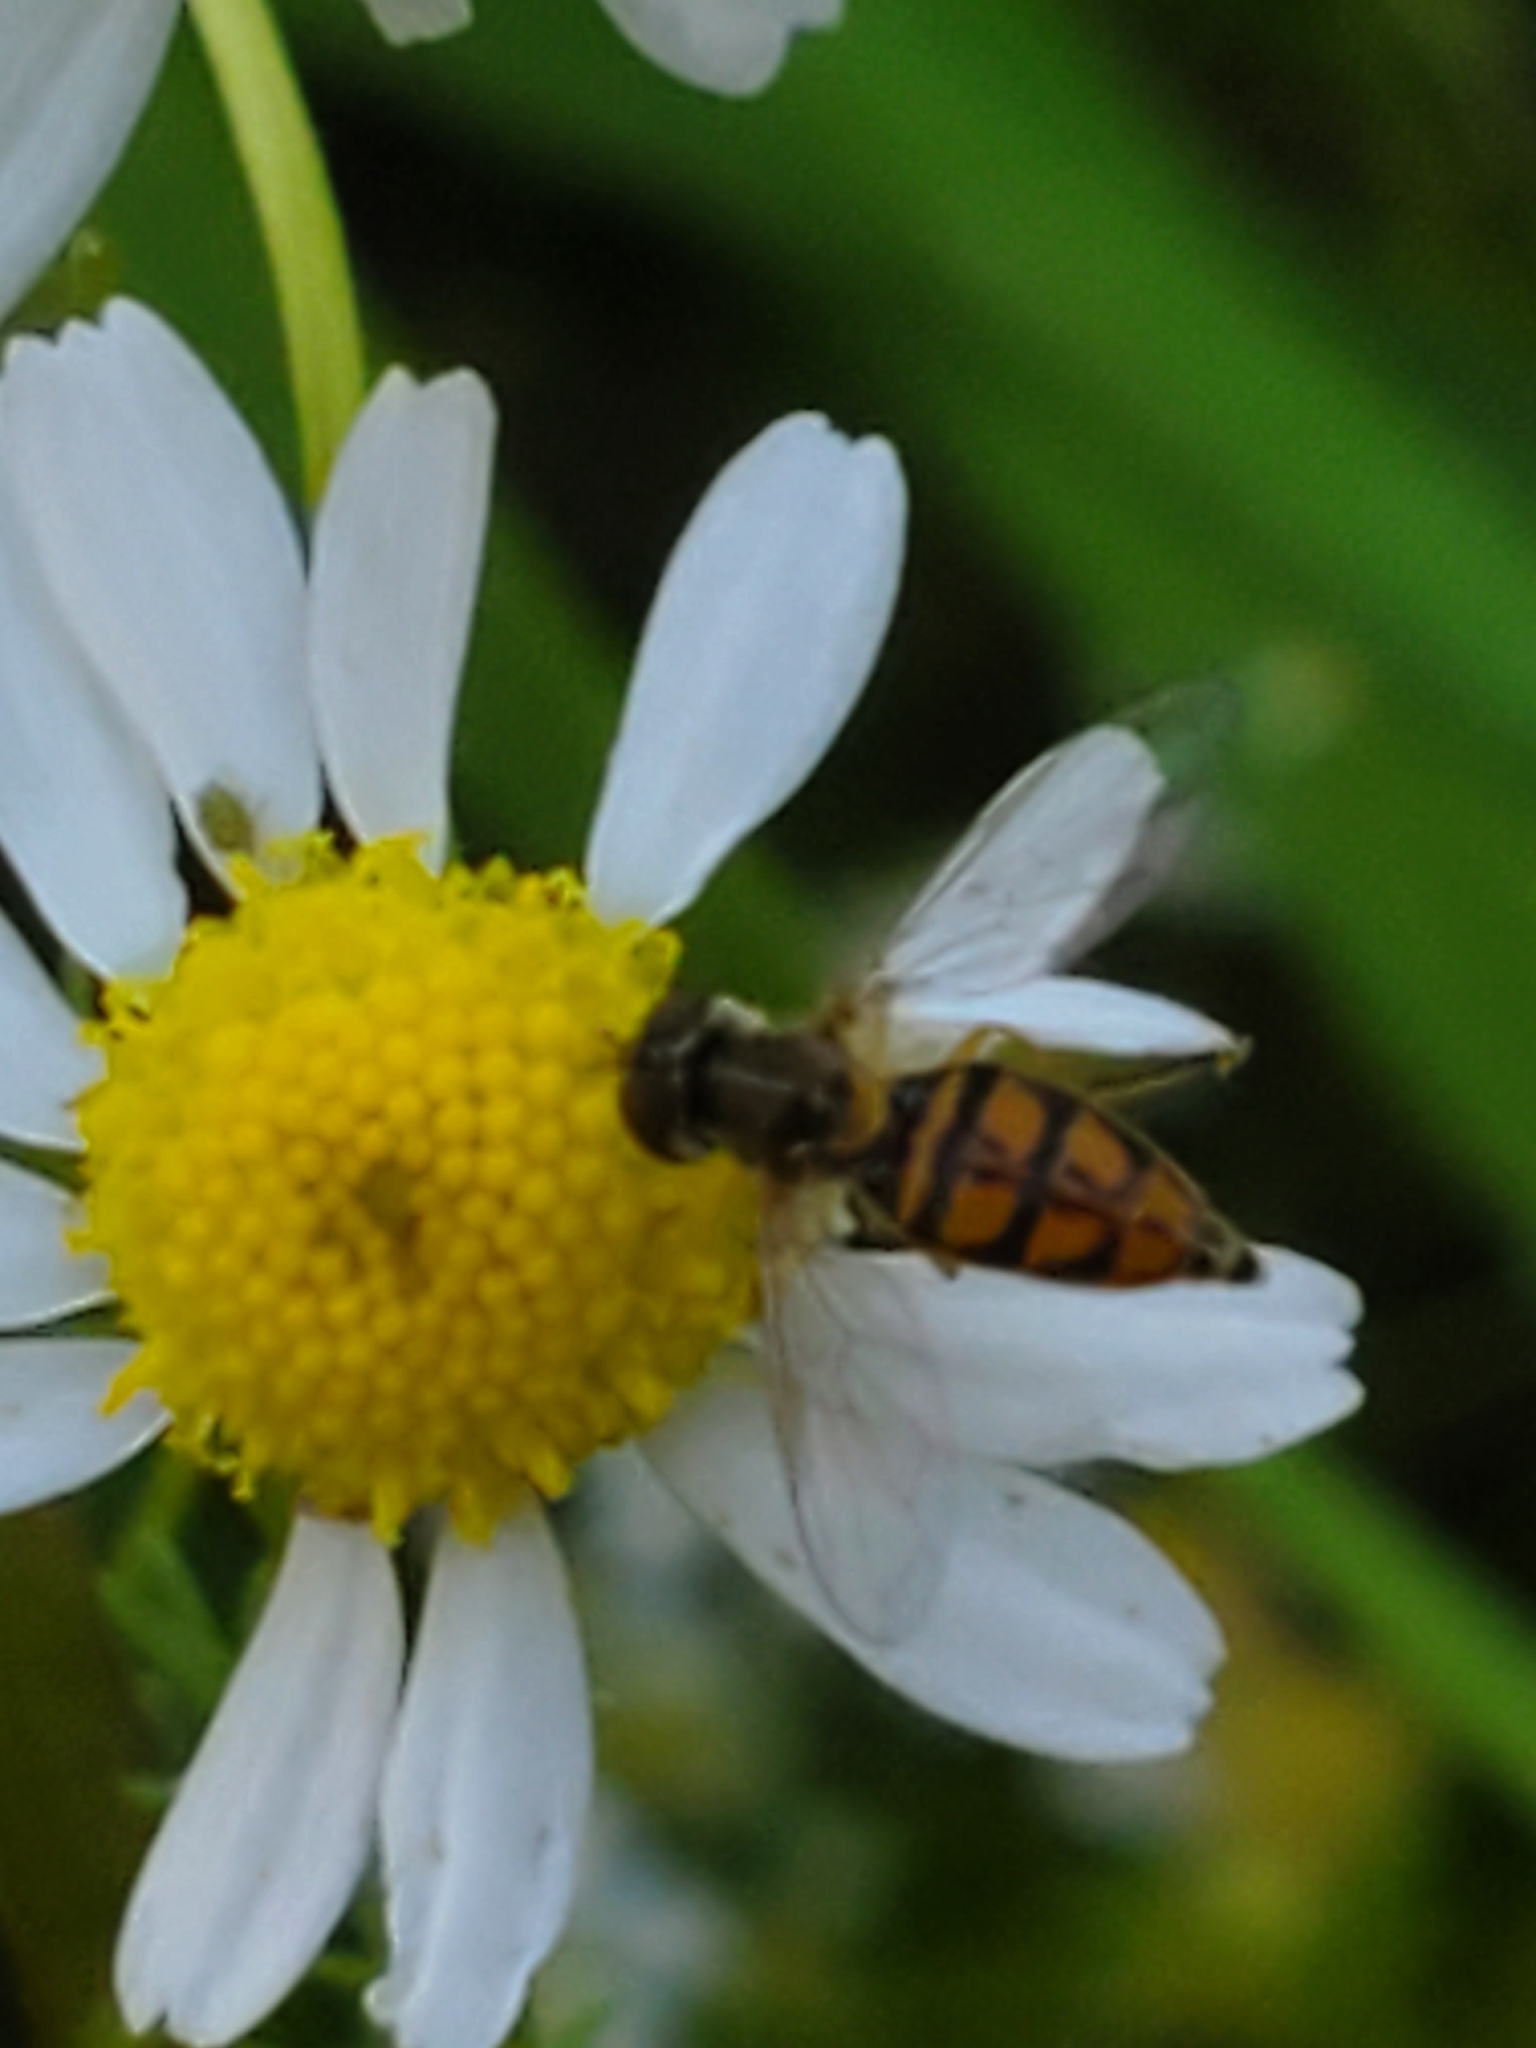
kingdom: Animalia
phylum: Arthropoda
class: Insecta
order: Diptera
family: Syrphidae
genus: Toxomerus
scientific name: Toxomerus marginatus
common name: Syrphid fly
